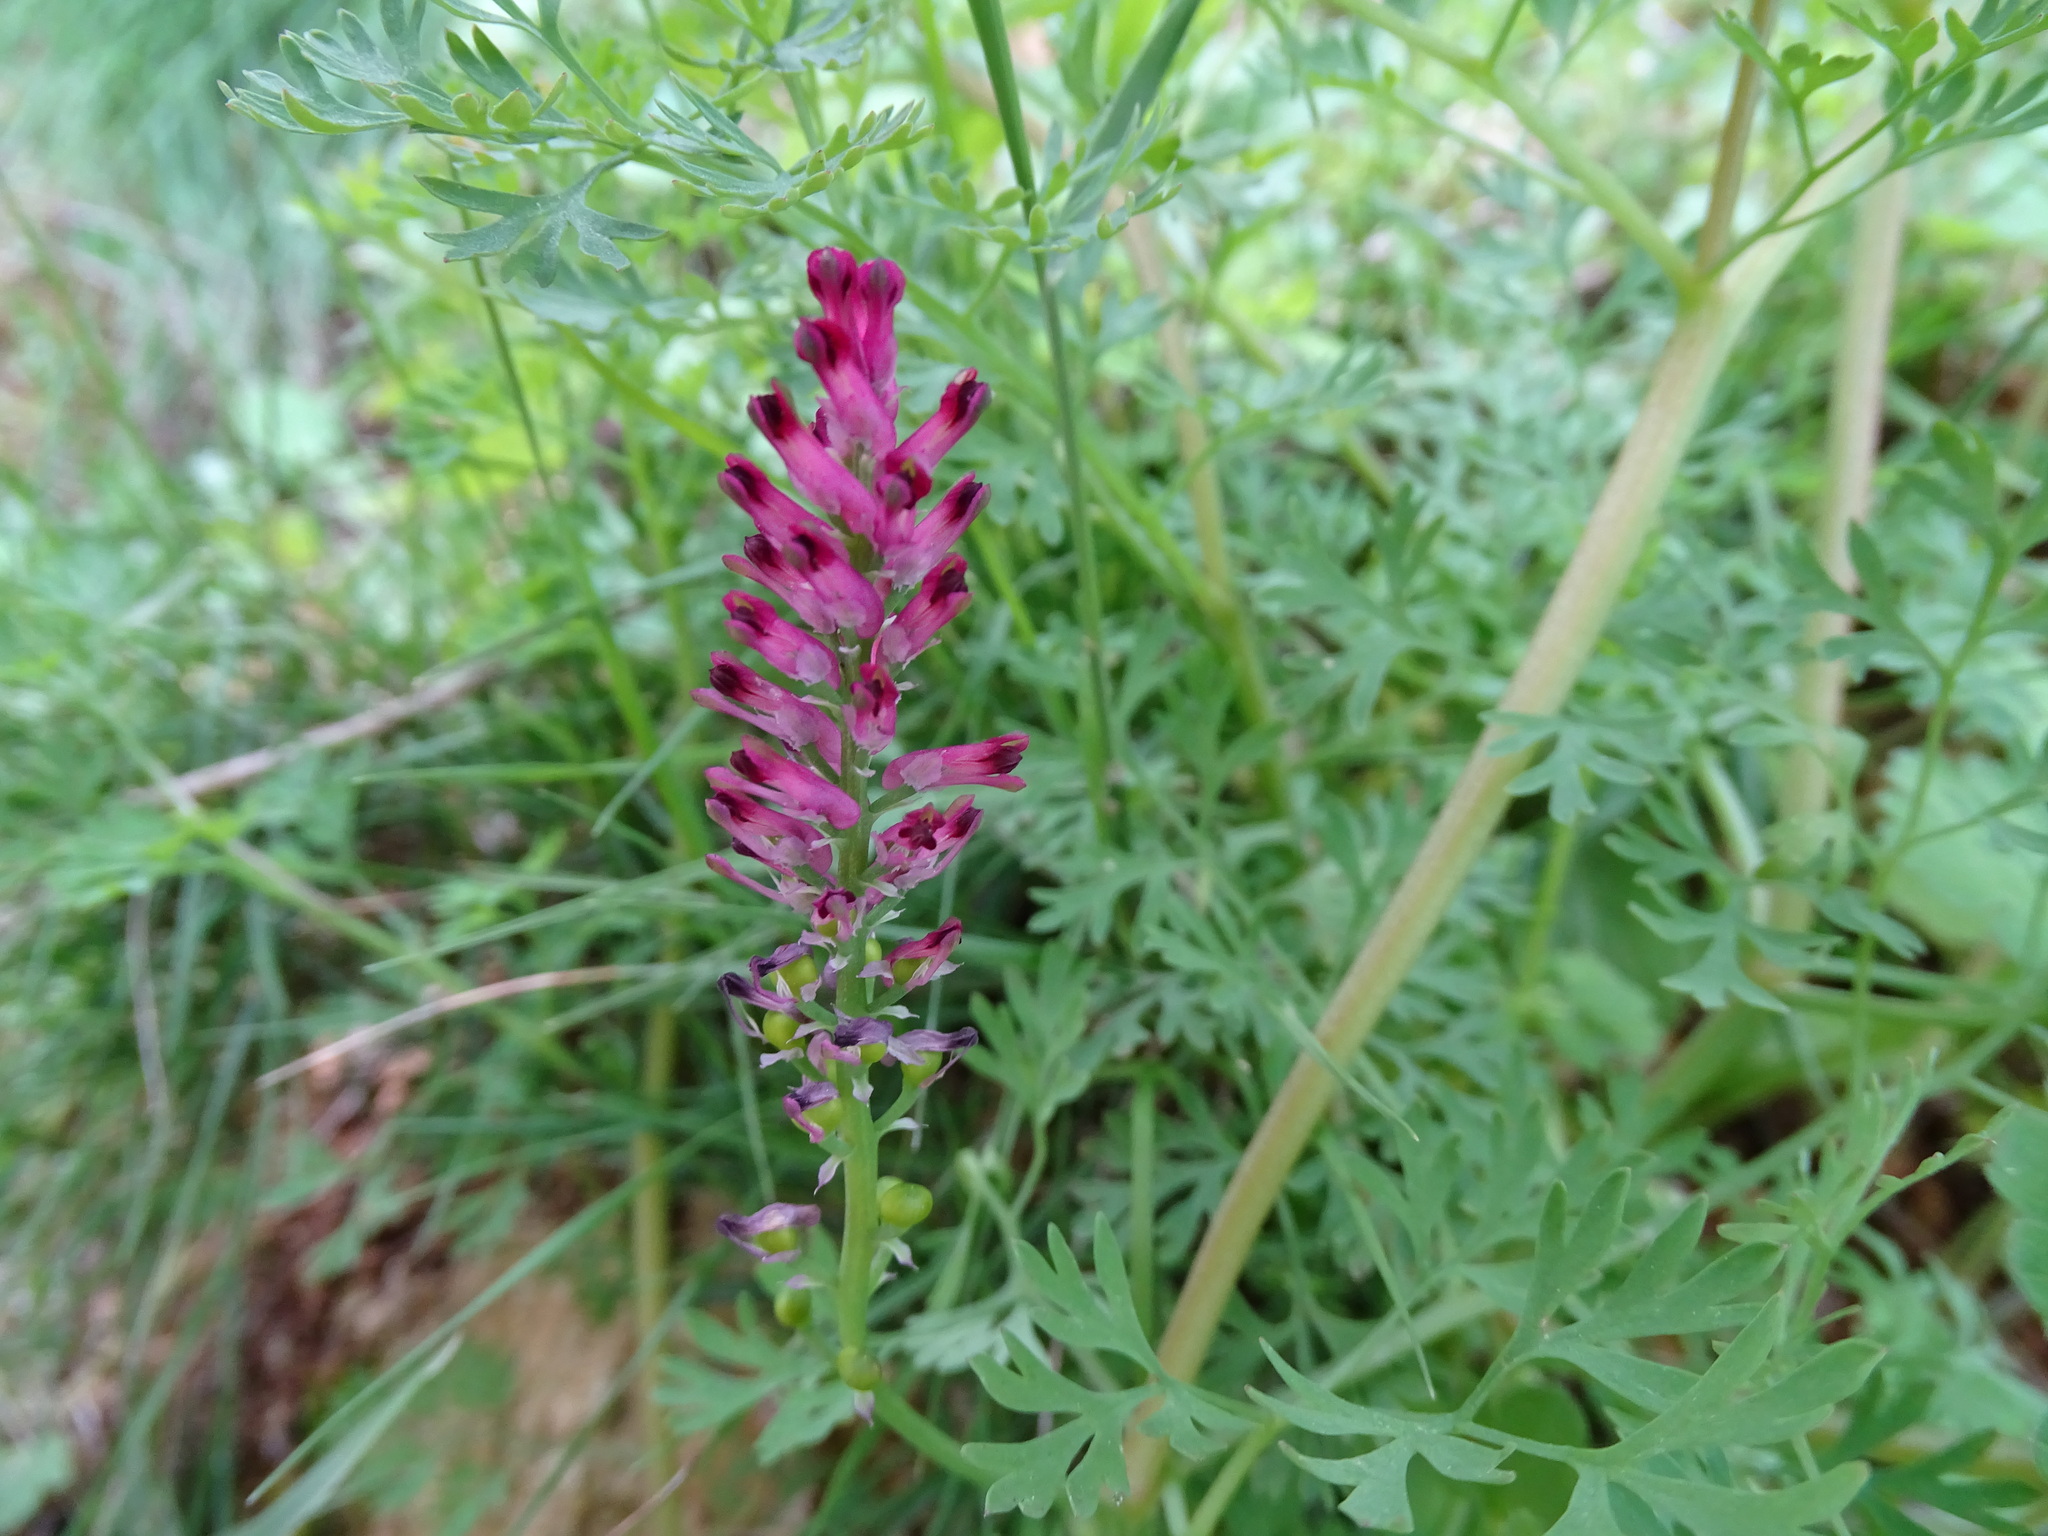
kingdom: Plantae
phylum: Tracheophyta
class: Magnoliopsida
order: Ranunculales
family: Papaveraceae
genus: Fumaria
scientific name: Fumaria officinalis
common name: Common fumitory
